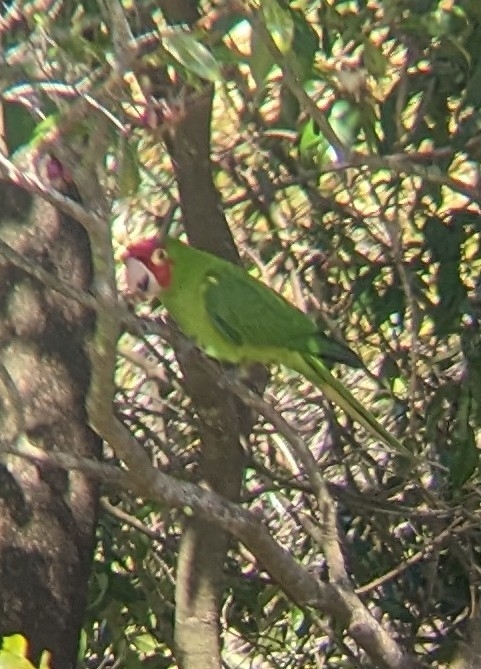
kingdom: Animalia
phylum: Chordata
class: Aves
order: Psittaciformes
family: Psittacidae
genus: Aratinga
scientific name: Aratinga erythrogenys
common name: Red-masked parakeet
